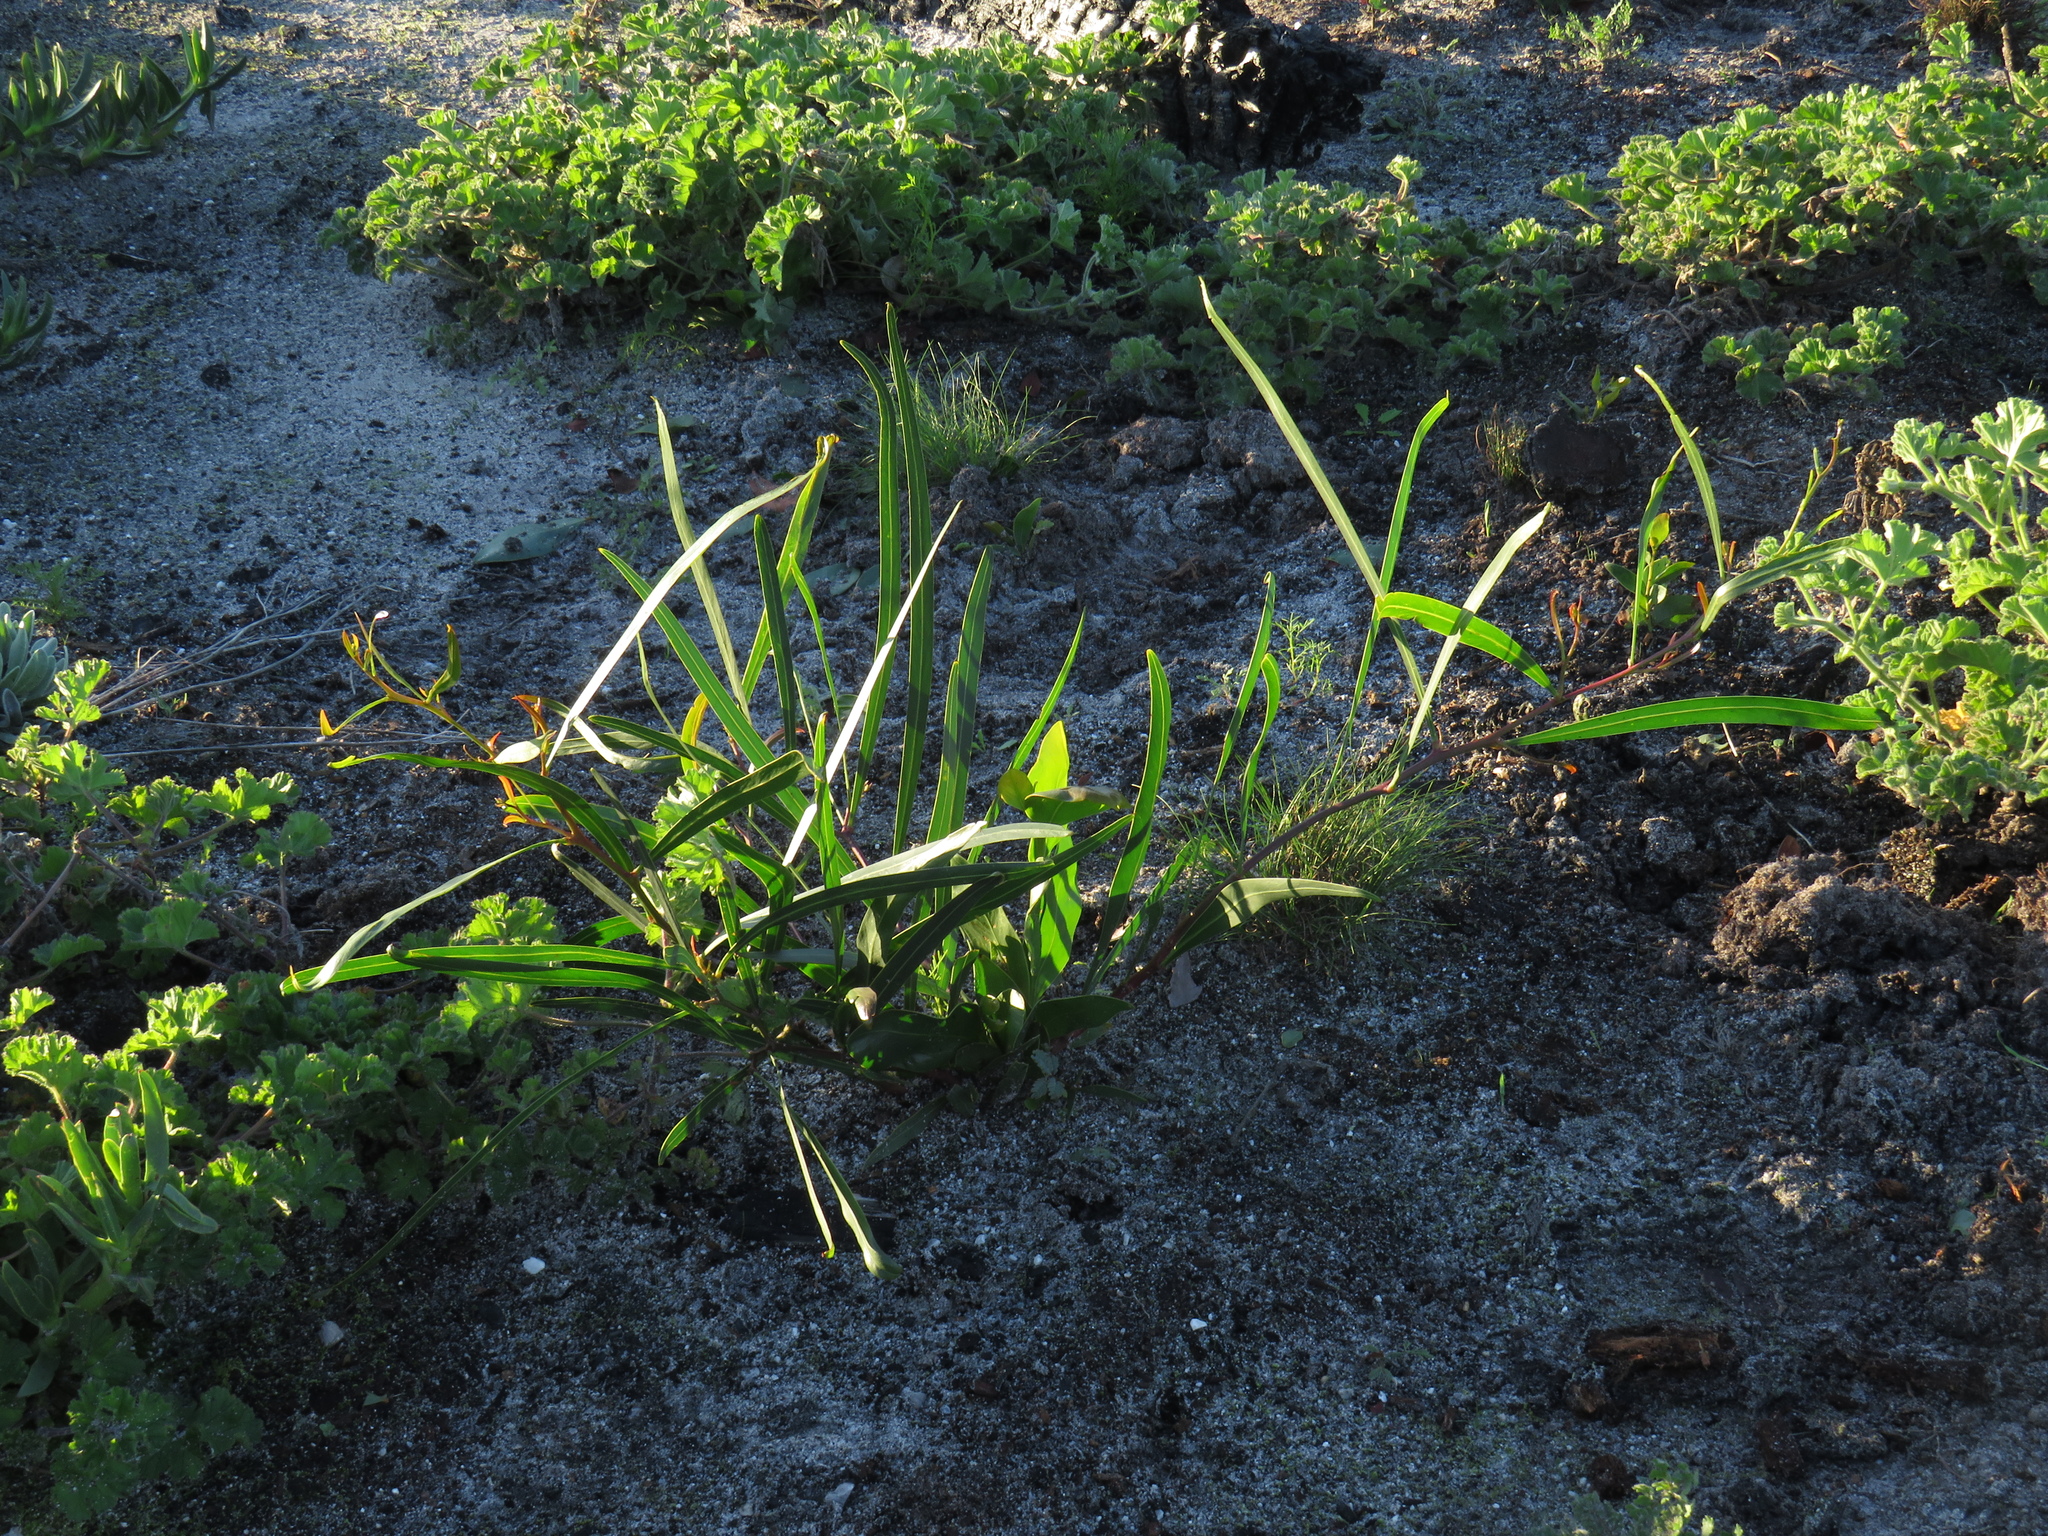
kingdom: Plantae
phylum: Tracheophyta
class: Magnoliopsida
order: Fabales
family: Fabaceae
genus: Acacia
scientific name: Acacia saligna
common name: Orange wattle
